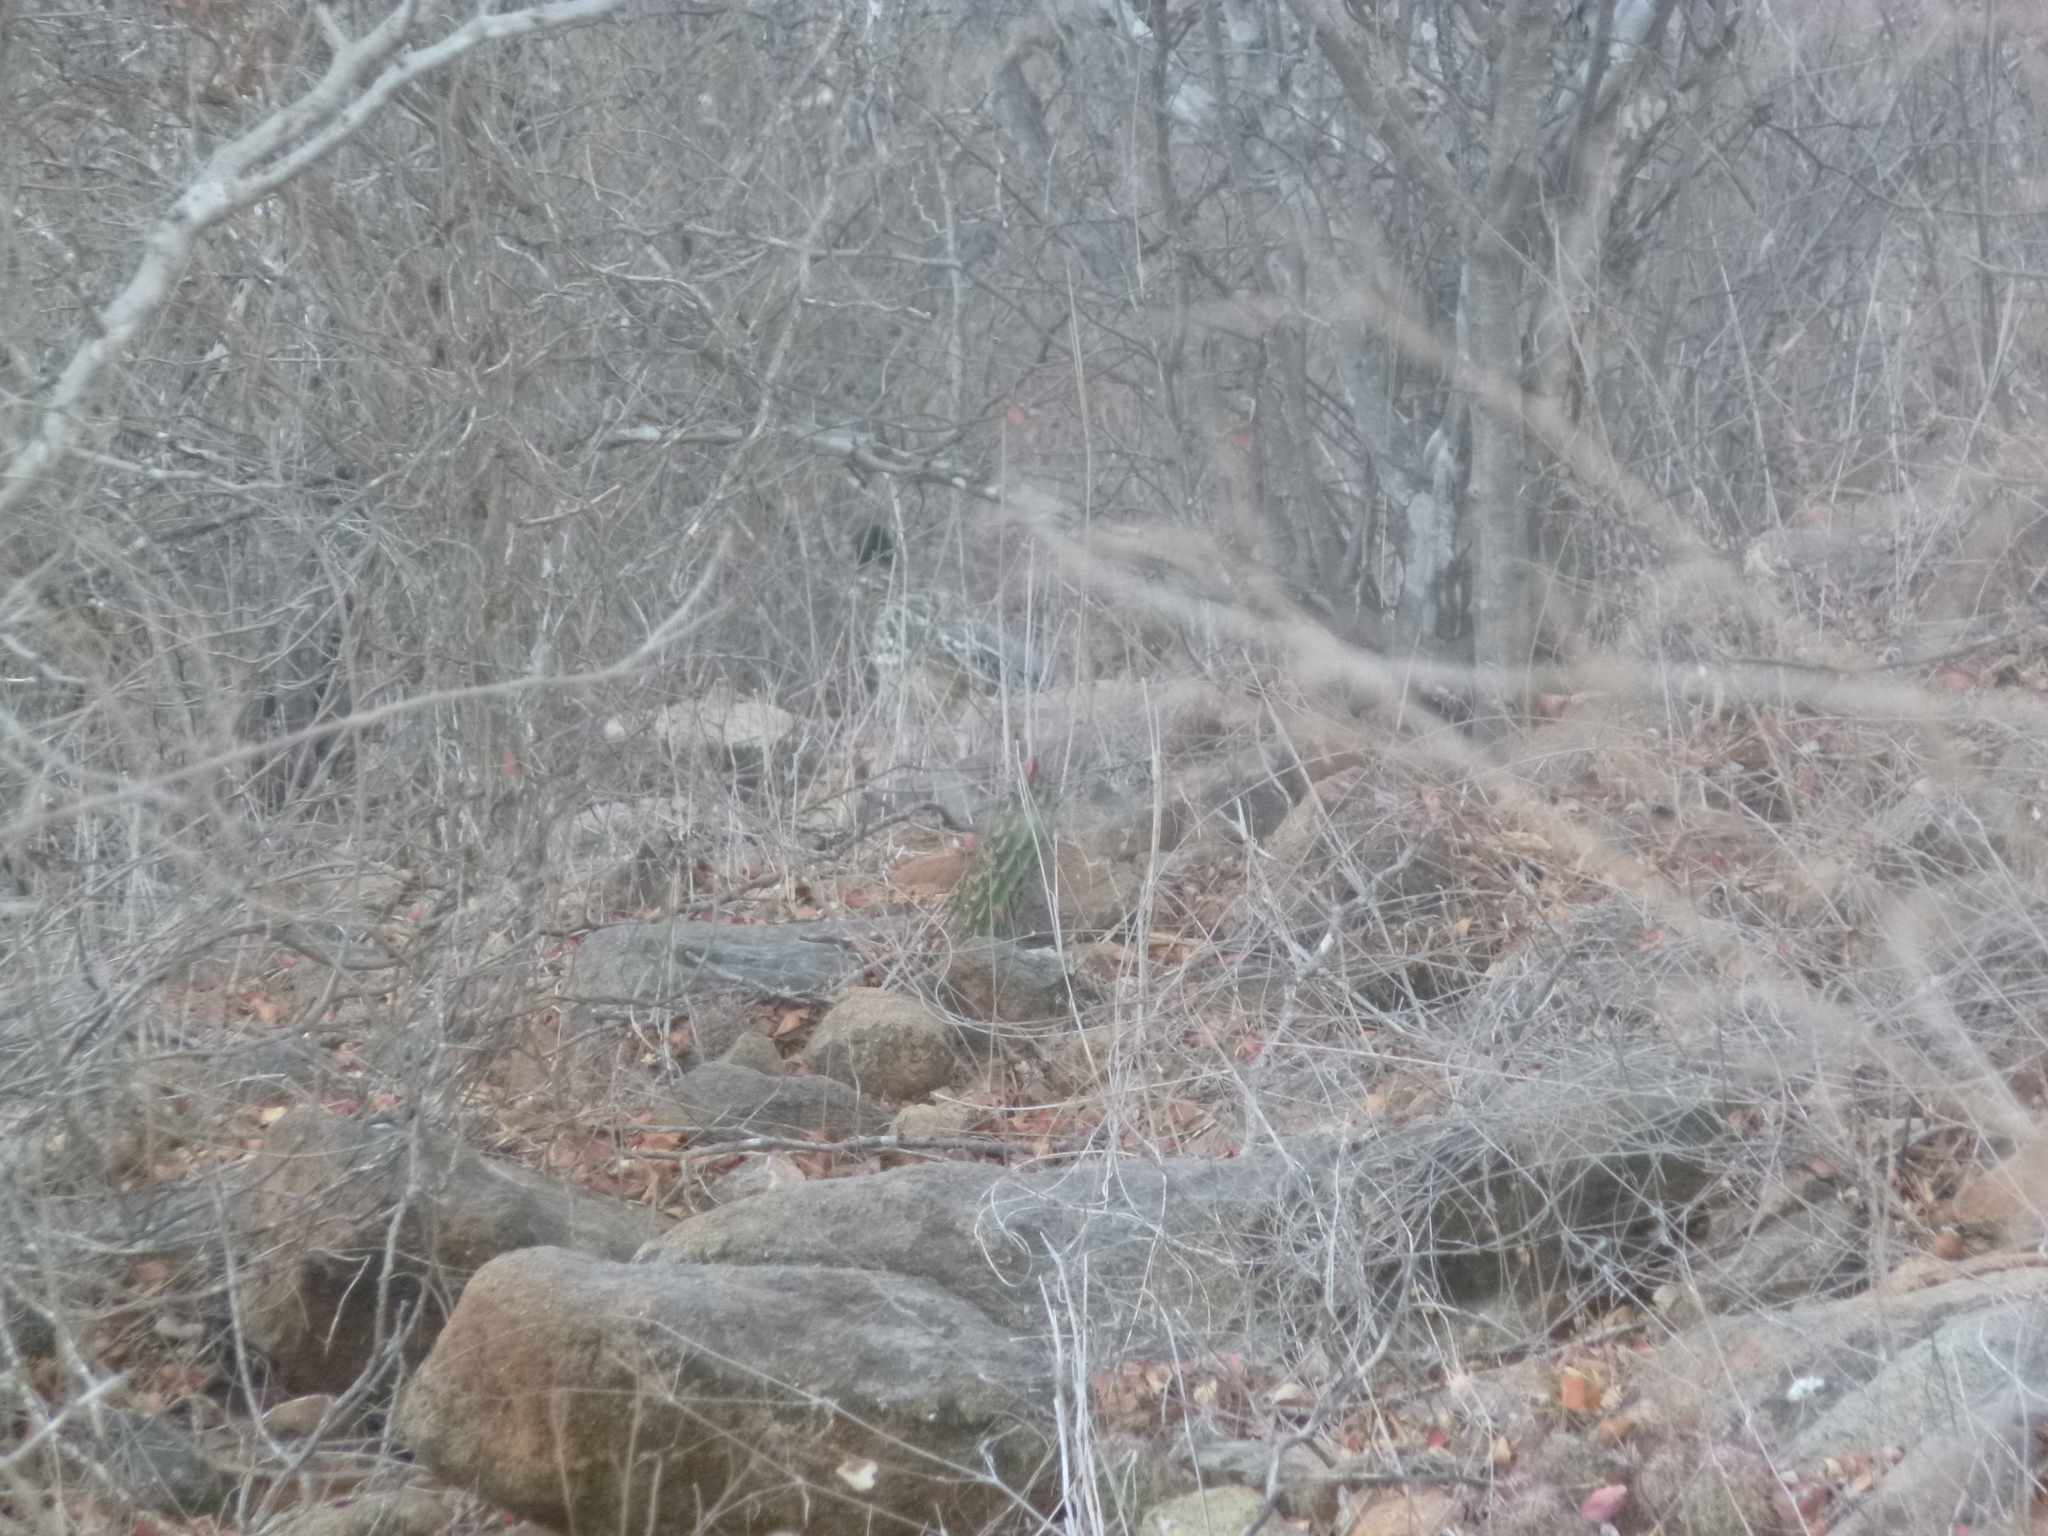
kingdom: Animalia
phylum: Chordata
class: Aves
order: Cuculiformes
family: Cuculidae
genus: Geococcyx
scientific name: Geococcyx californianus
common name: Greater roadrunner
